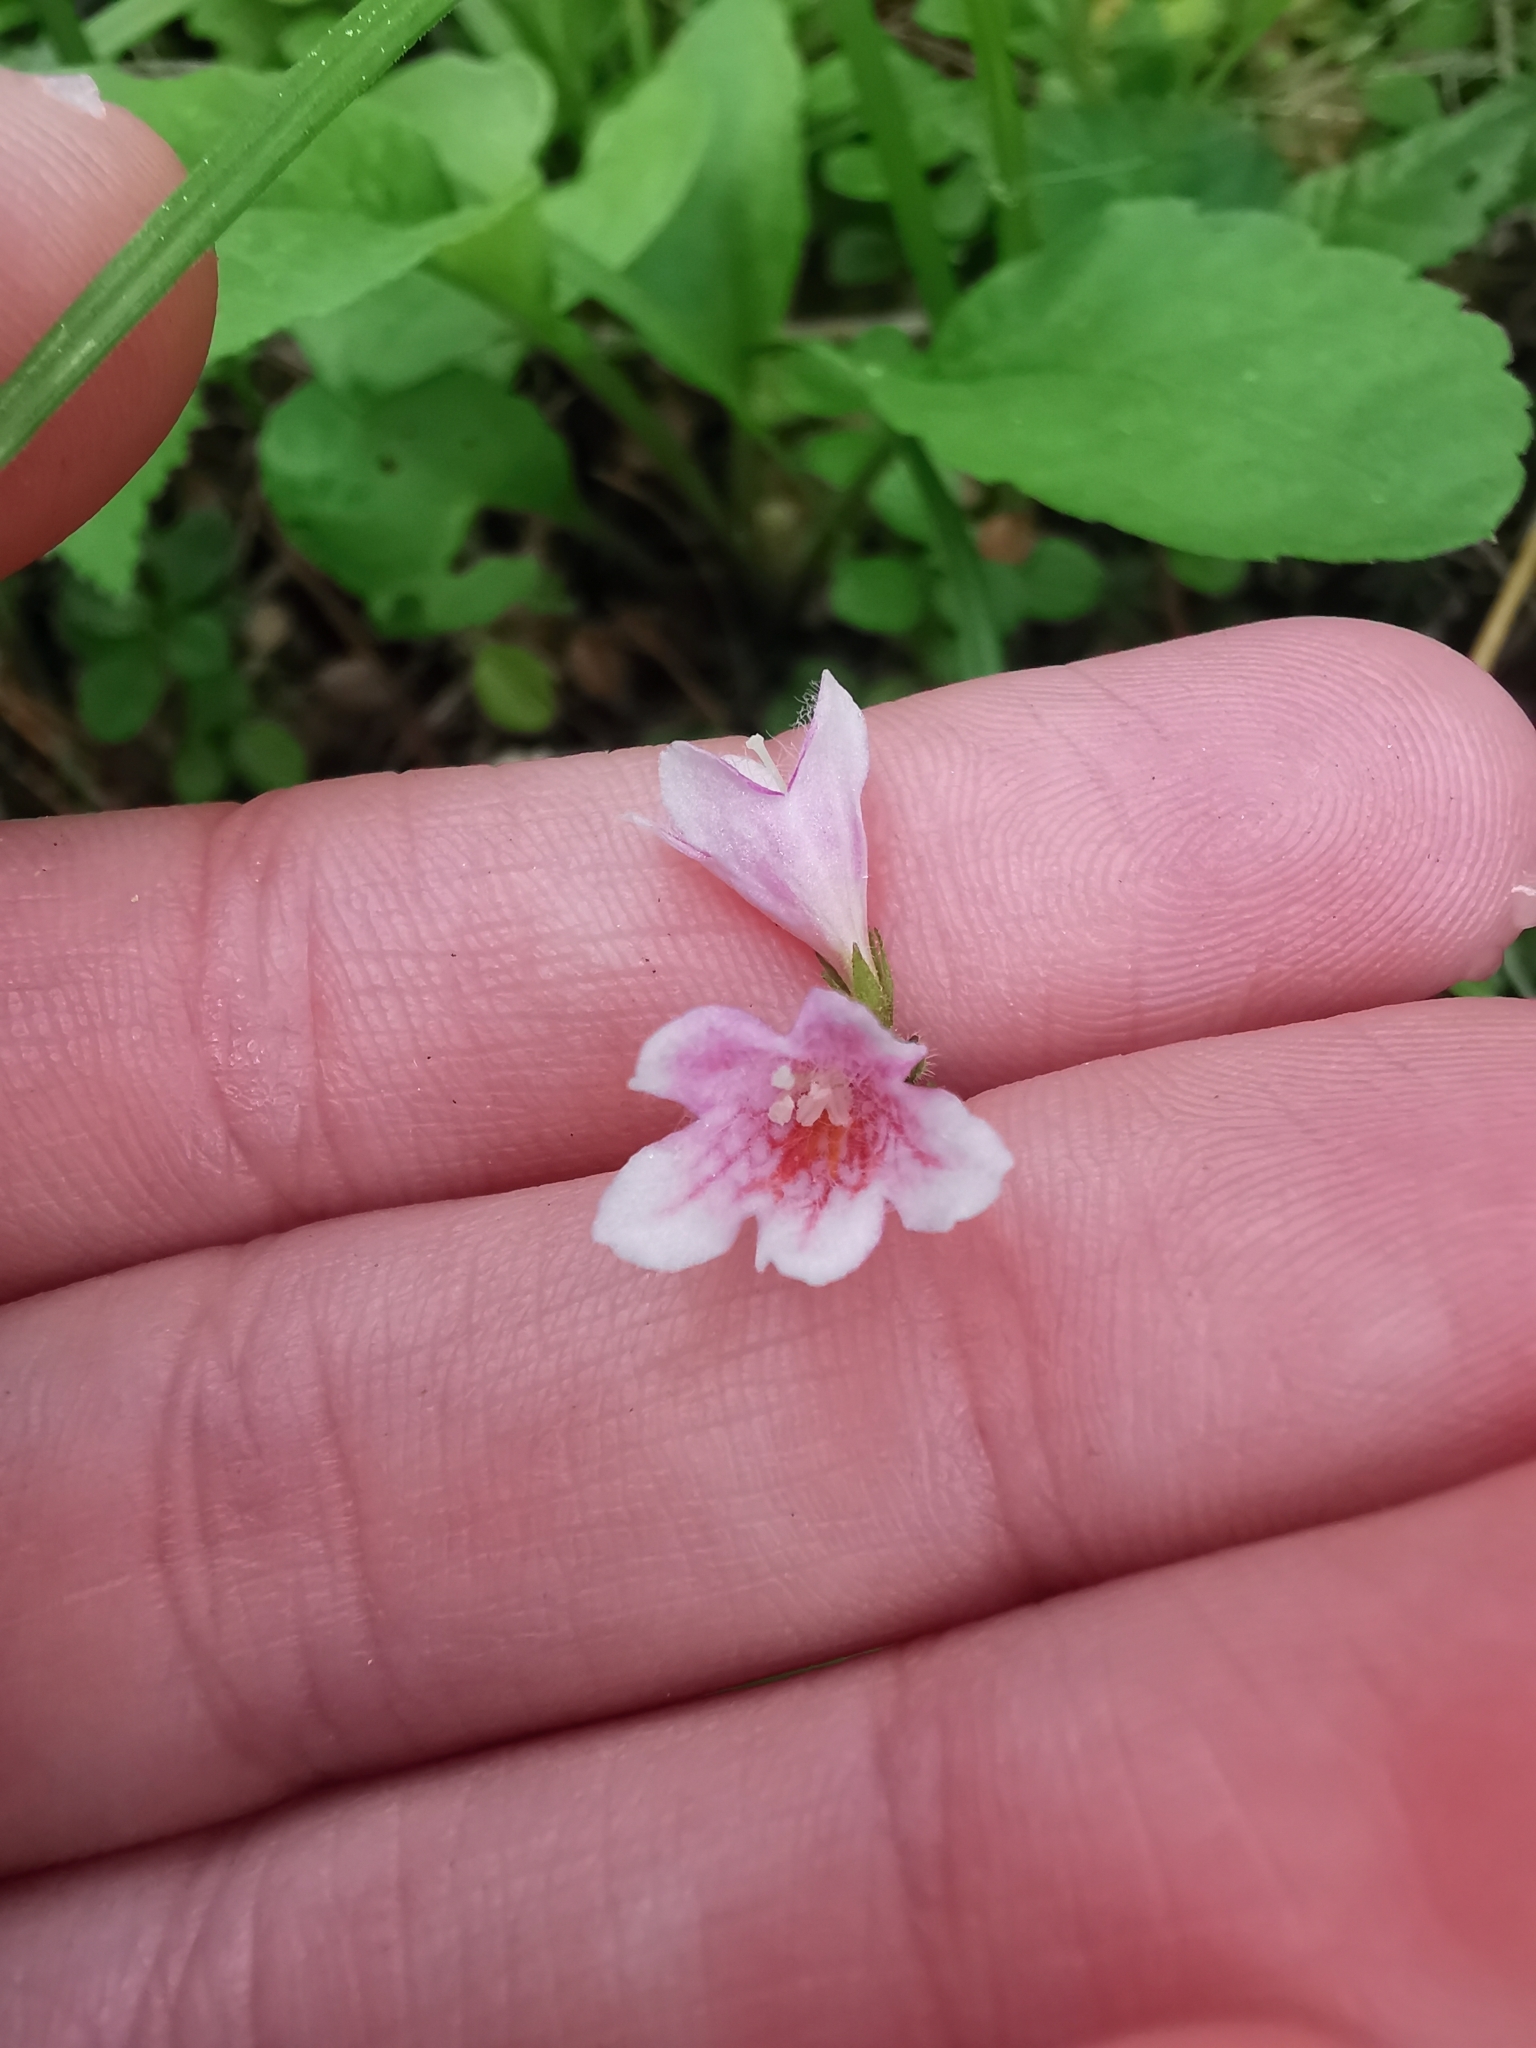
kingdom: Plantae
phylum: Tracheophyta
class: Magnoliopsida
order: Dipsacales
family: Caprifoliaceae
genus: Linnaea
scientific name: Linnaea borealis
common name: Twinflower
